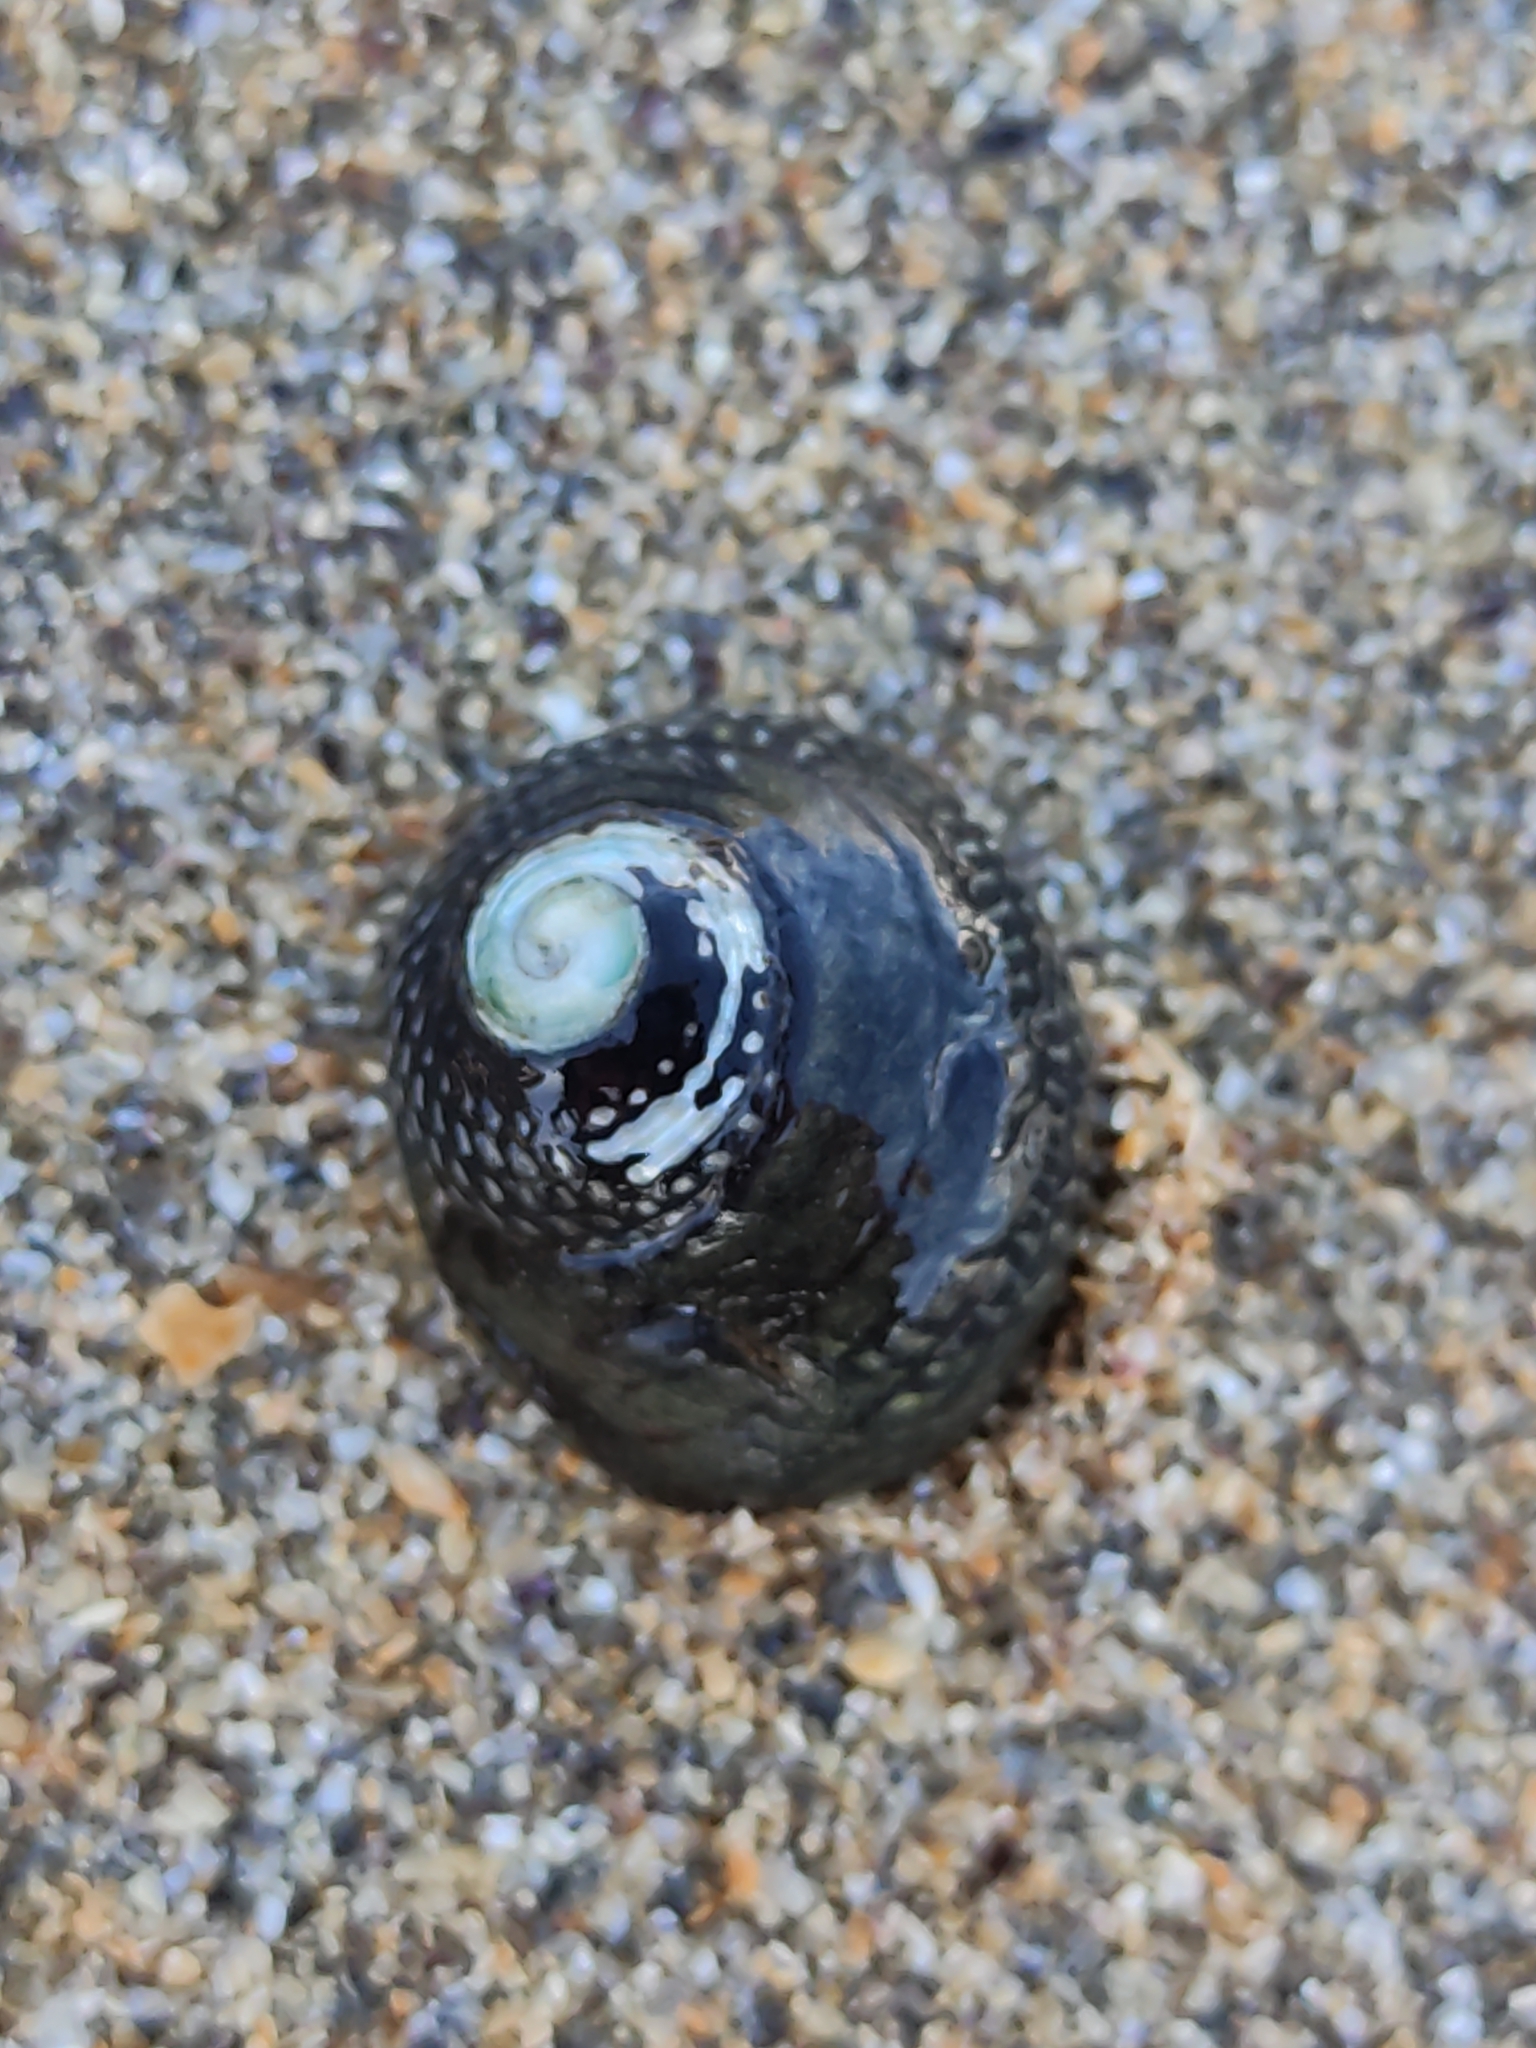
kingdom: Animalia
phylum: Mollusca
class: Gastropoda
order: Trochida
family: Trochidae
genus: Diloma
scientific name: Diloma aethiops
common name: Scorched monodont
